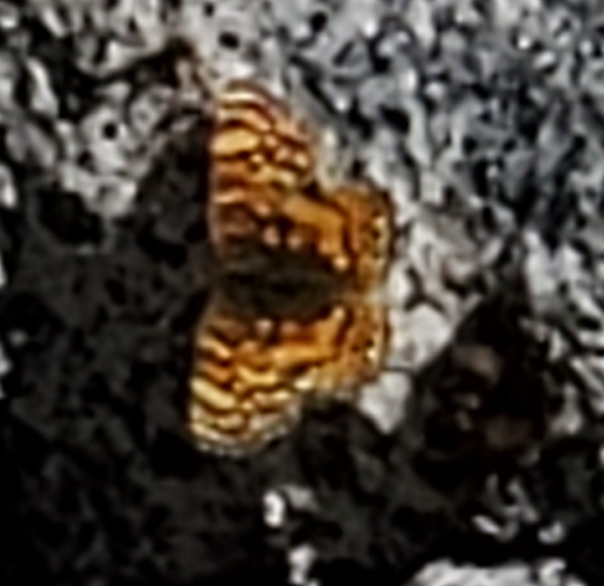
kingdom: Animalia
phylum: Arthropoda
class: Insecta
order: Lepidoptera
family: Nymphalidae
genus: Eresia
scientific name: Eresia aveyrona
